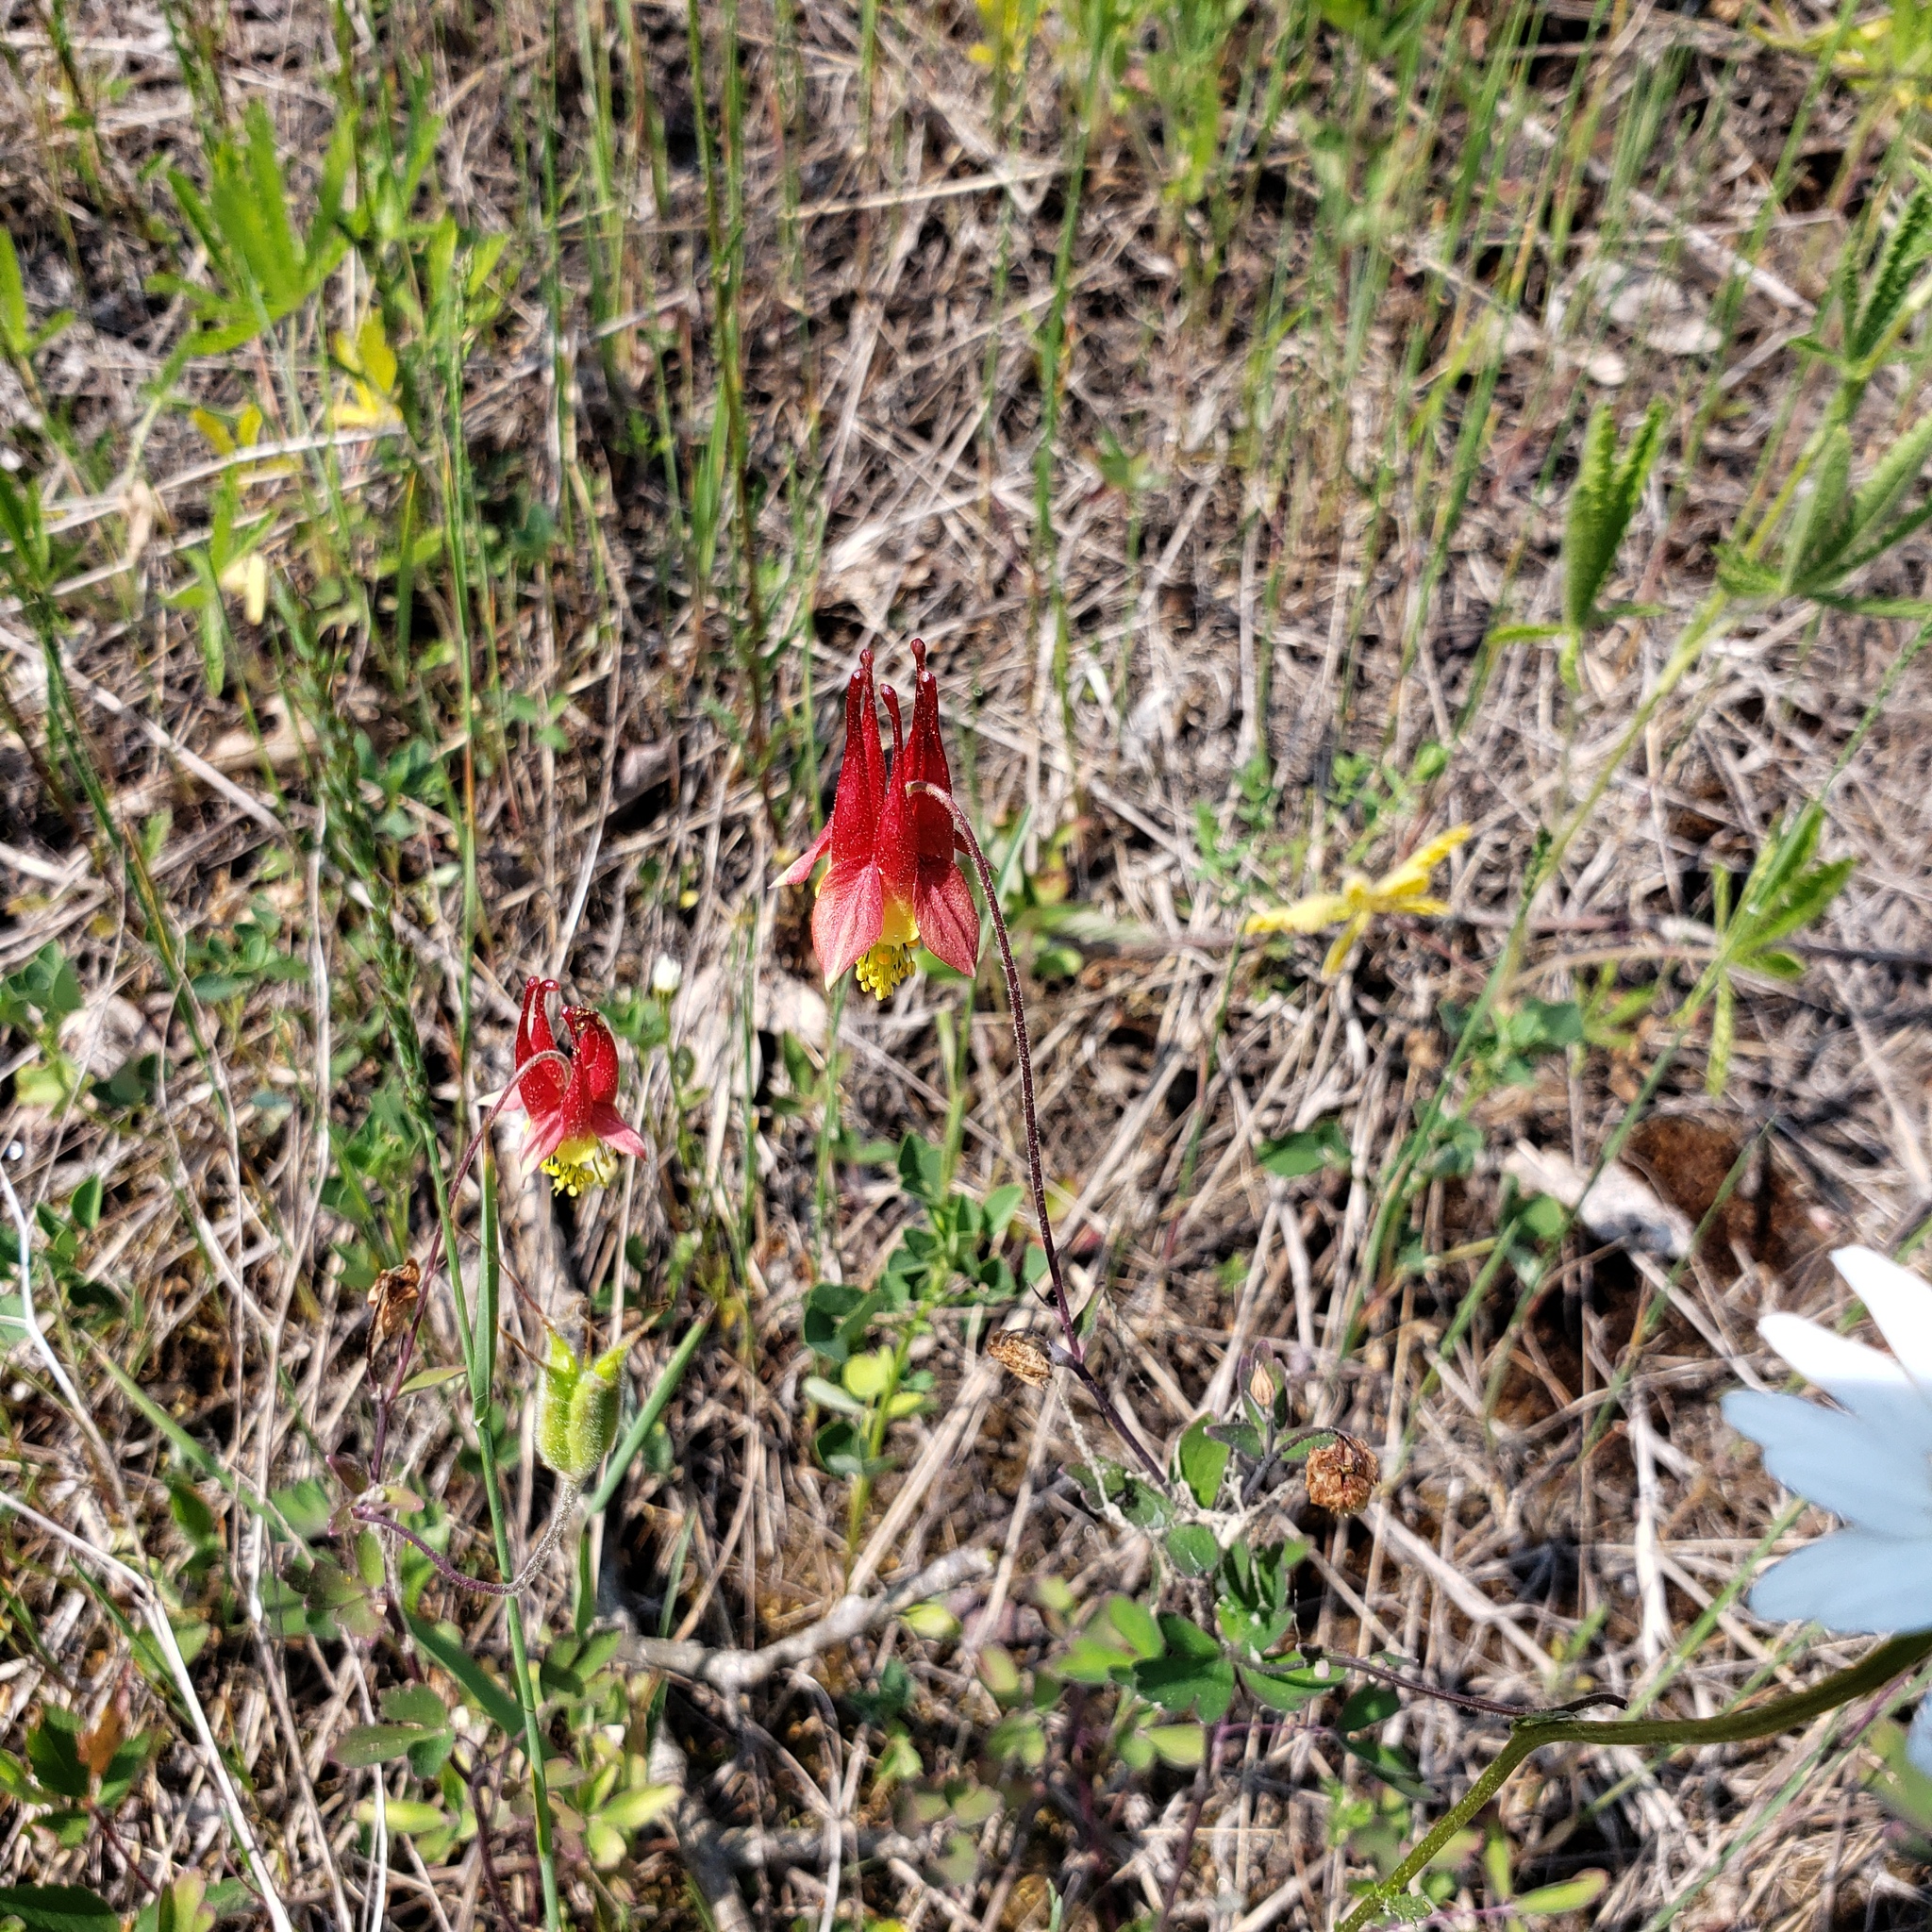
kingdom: Plantae
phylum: Tracheophyta
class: Magnoliopsida
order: Ranunculales
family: Ranunculaceae
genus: Aquilegia
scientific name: Aquilegia canadensis
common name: American columbine
